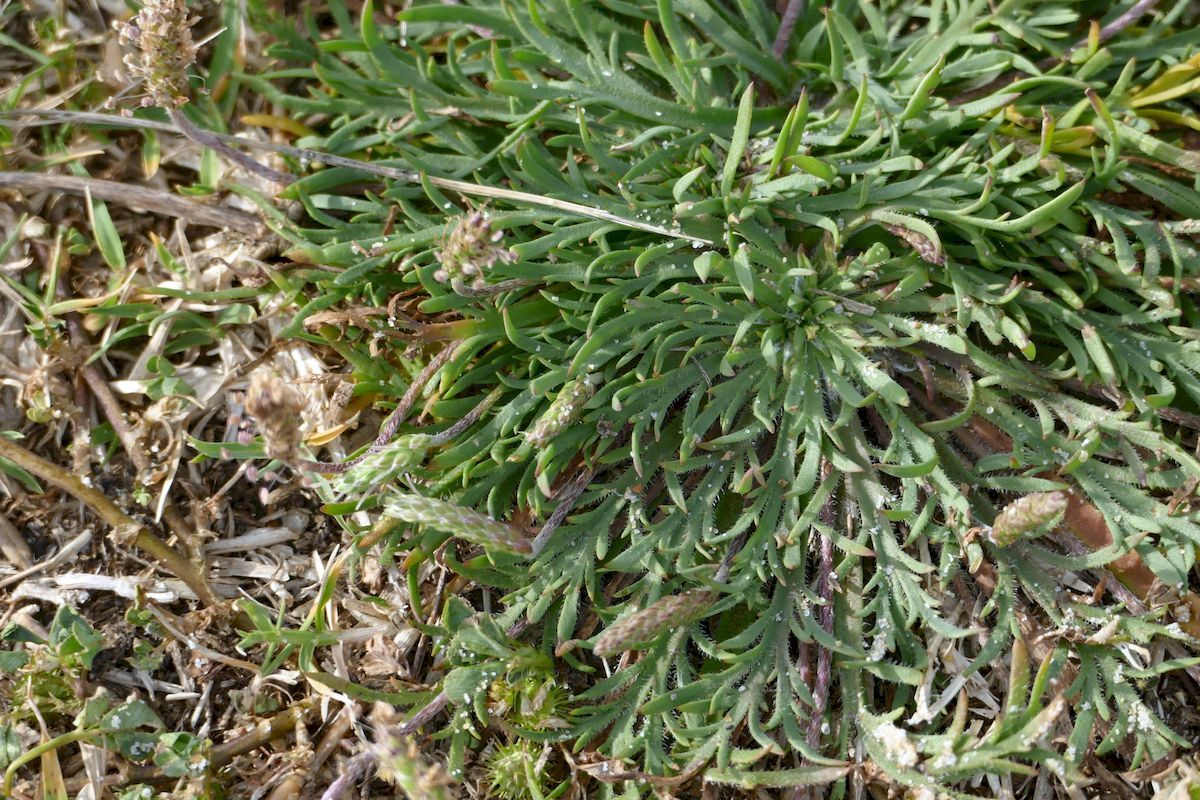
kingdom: Plantae
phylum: Tracheophyta
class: Magnoliopsida
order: Lamiales
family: Plantaginaceae
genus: Plantago
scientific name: Plantago coronopus
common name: Buck's-horn plantain
